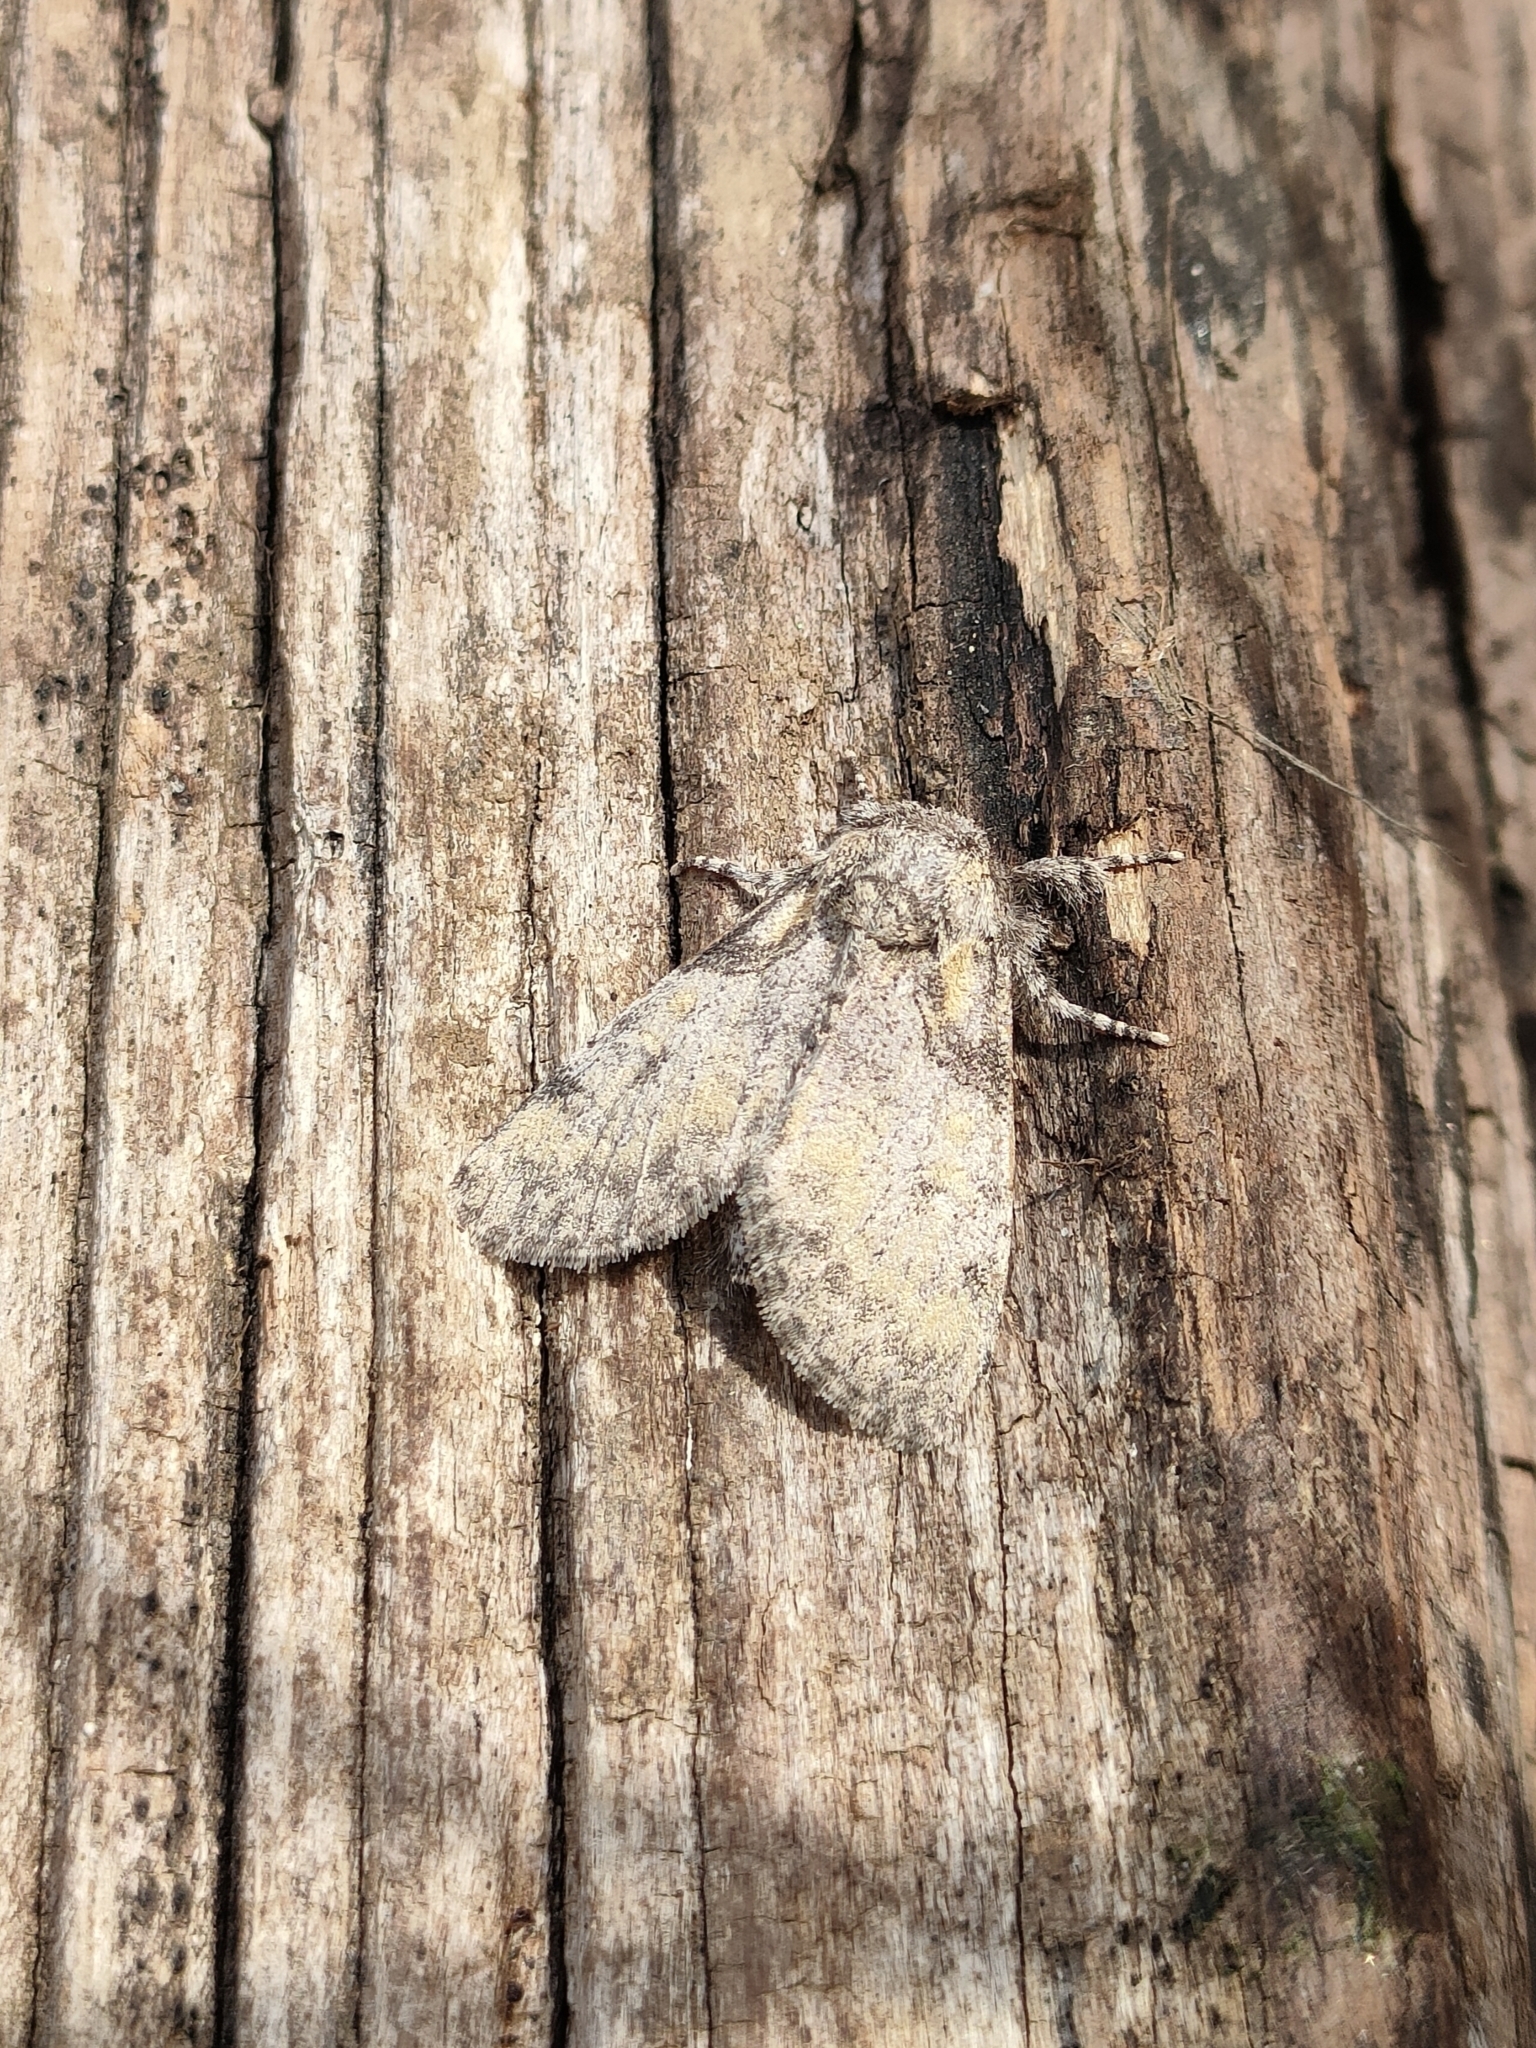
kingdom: Animalia
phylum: Arthropoda
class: Insecta
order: Lepidoptera
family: Noctuidae
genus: Raphia
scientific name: Raphia hybris
